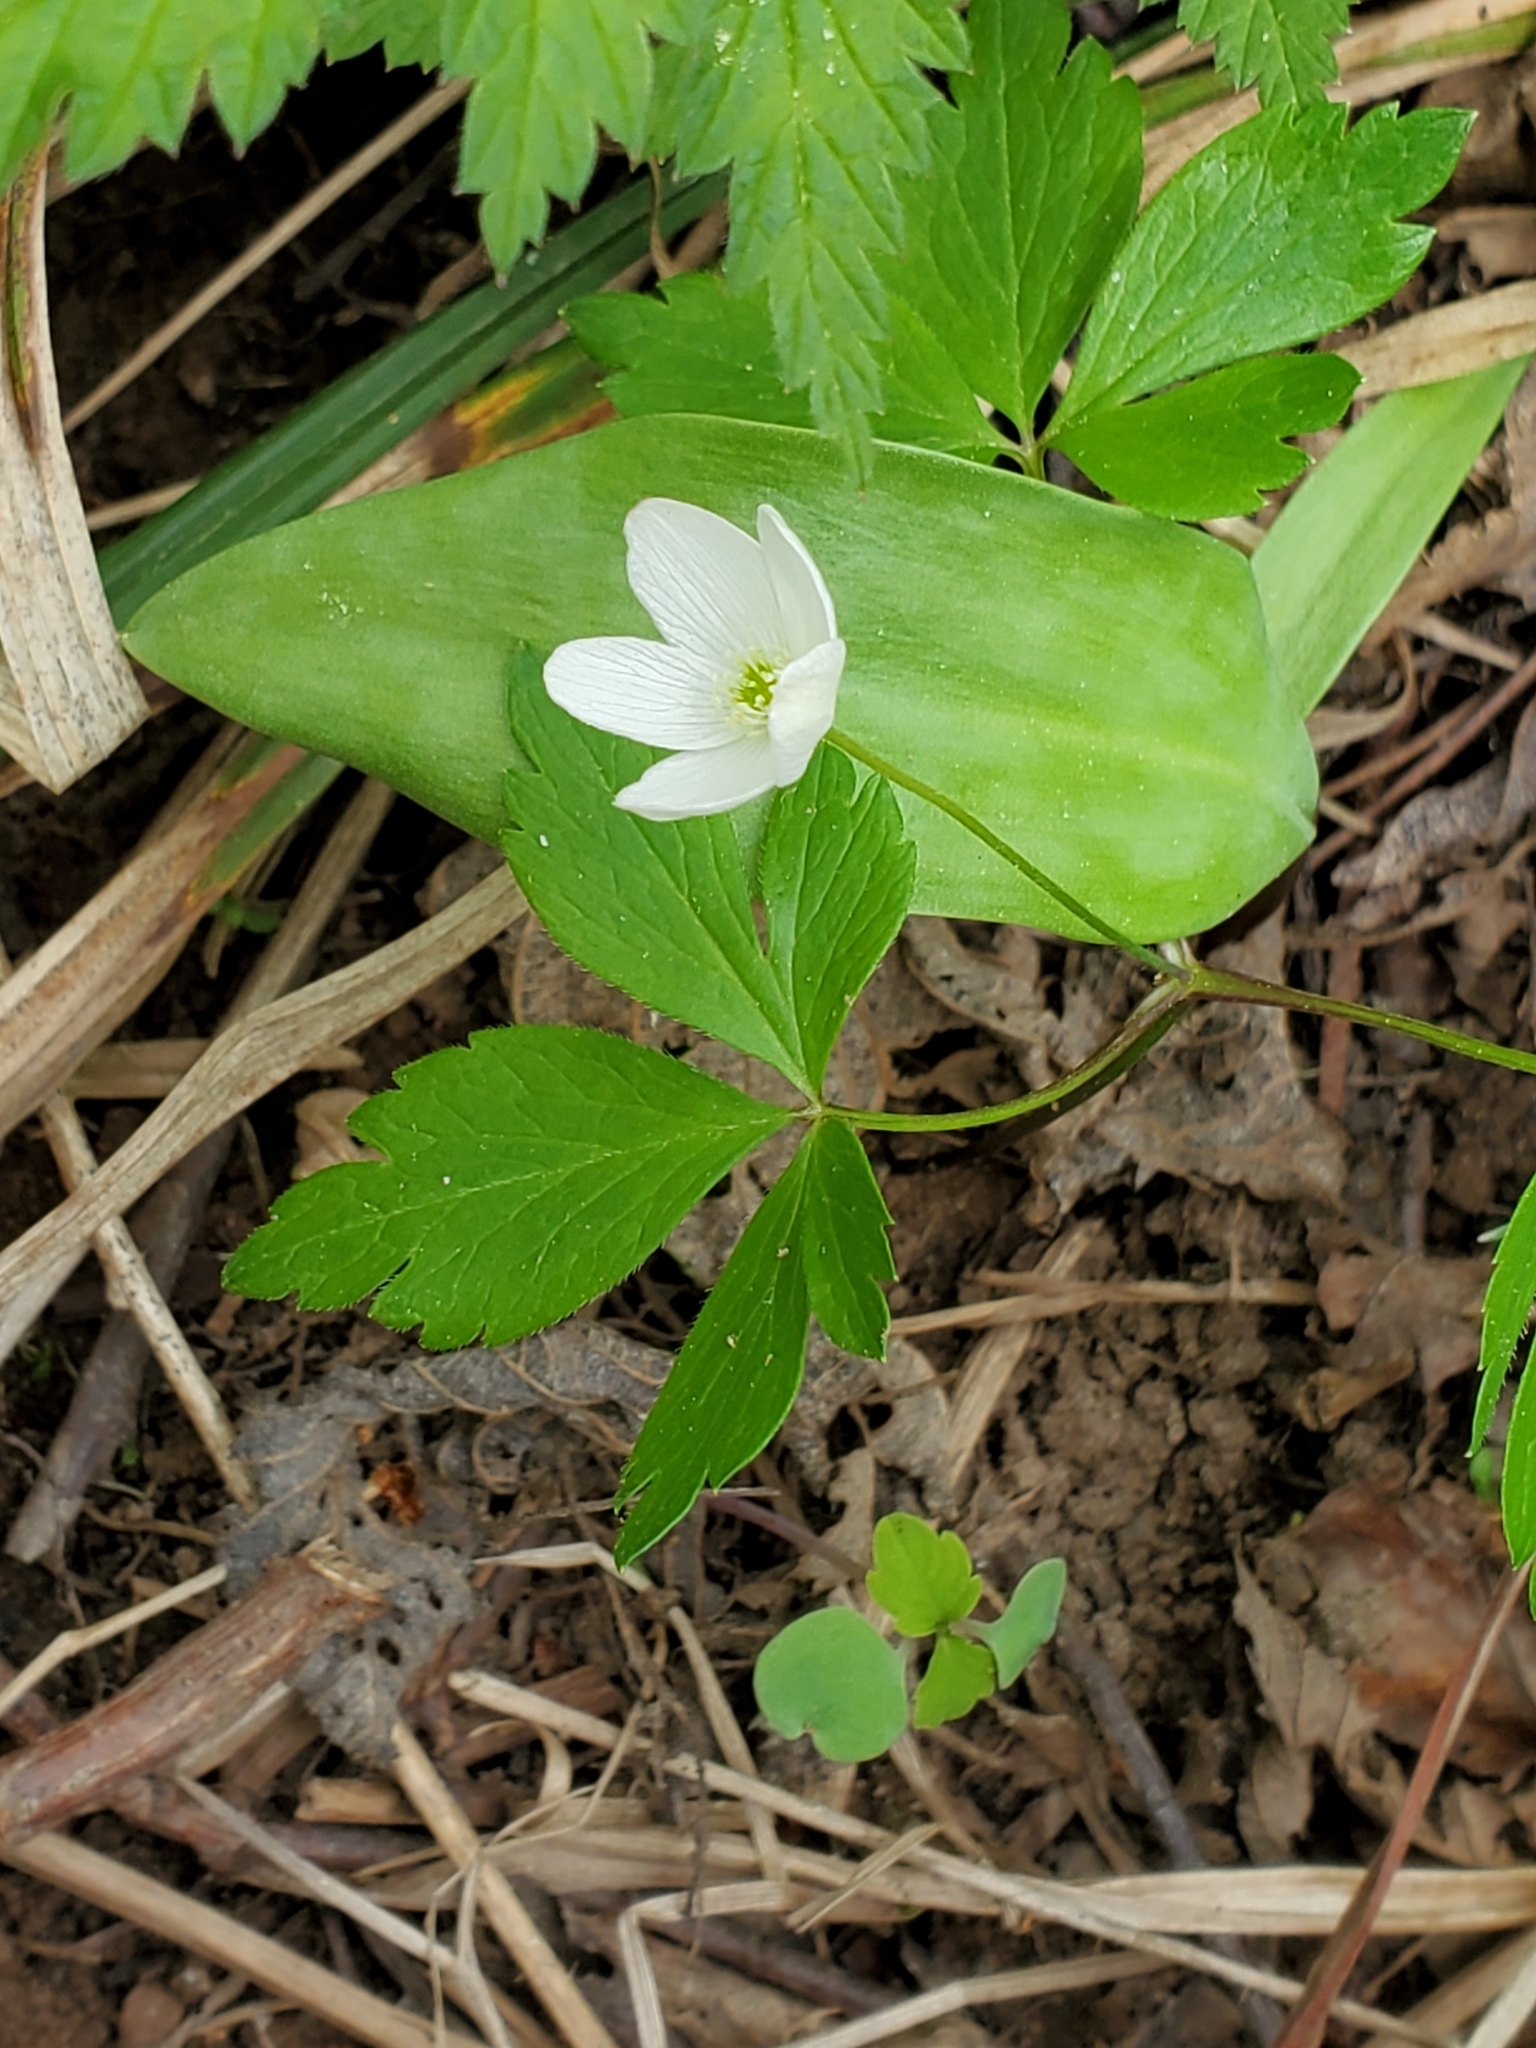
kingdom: Plantae
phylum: Tracheophyta
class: Magnoliopsida
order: Ranunculales
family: Ranunculaceae
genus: Anemone
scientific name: Anemone quinquefolia
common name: Wood anemone
